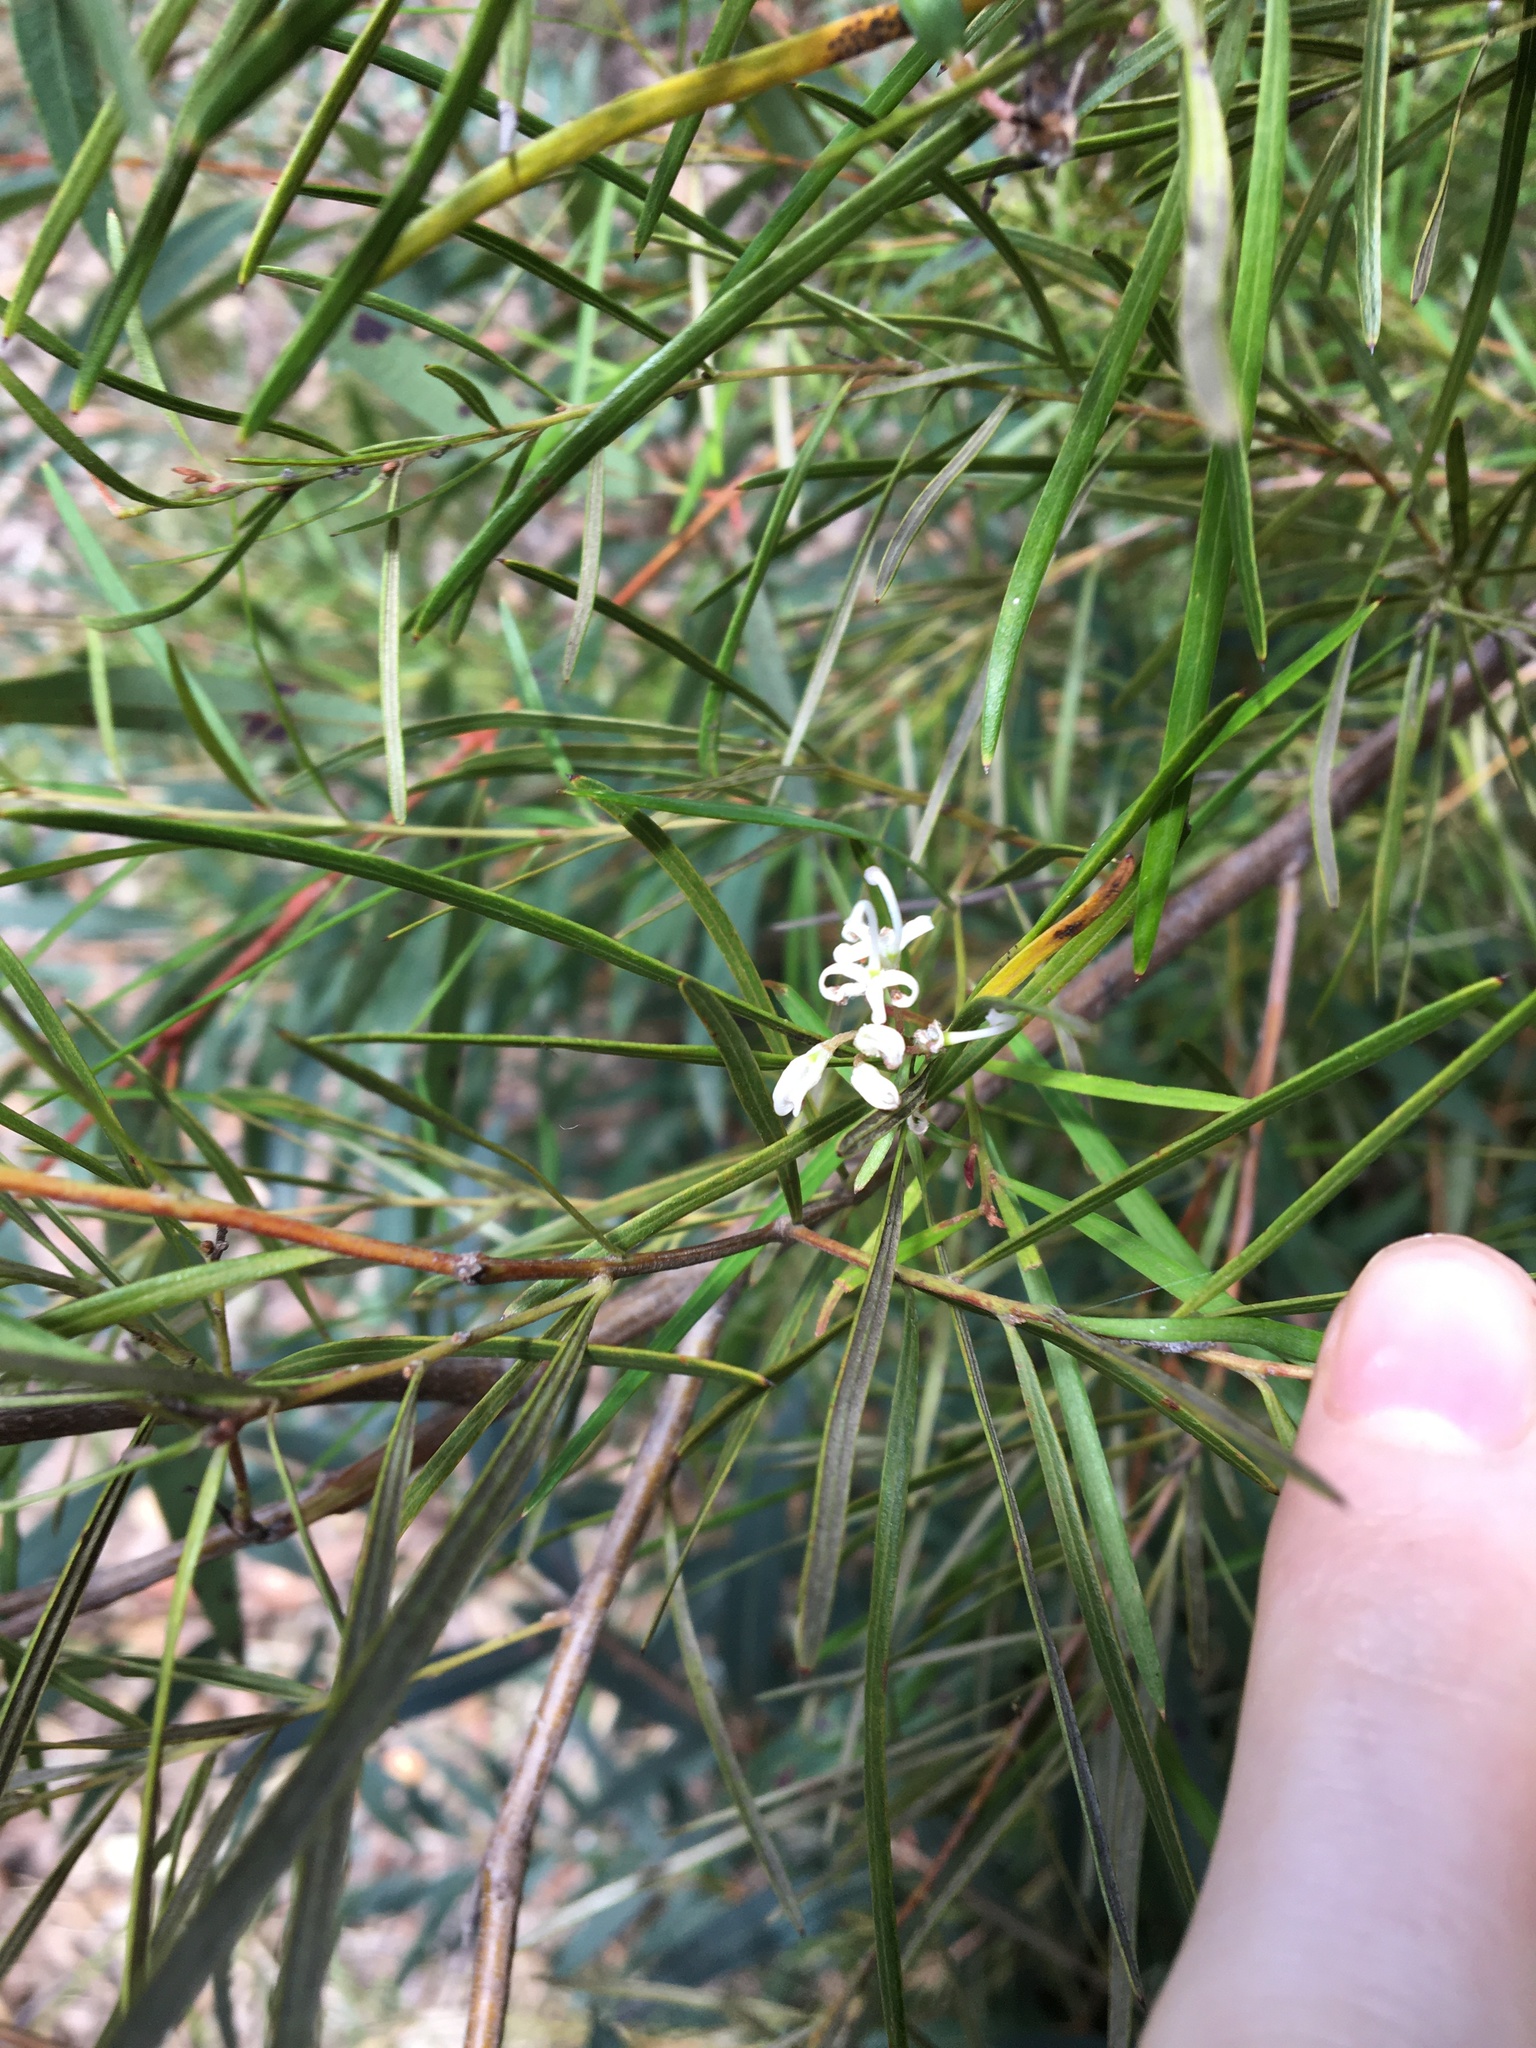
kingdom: Plantae
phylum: Tracheophyta
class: Magnoliopsida
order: Proteales
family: Proteaceae
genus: Grevillea
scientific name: Grevillea linearifolia
